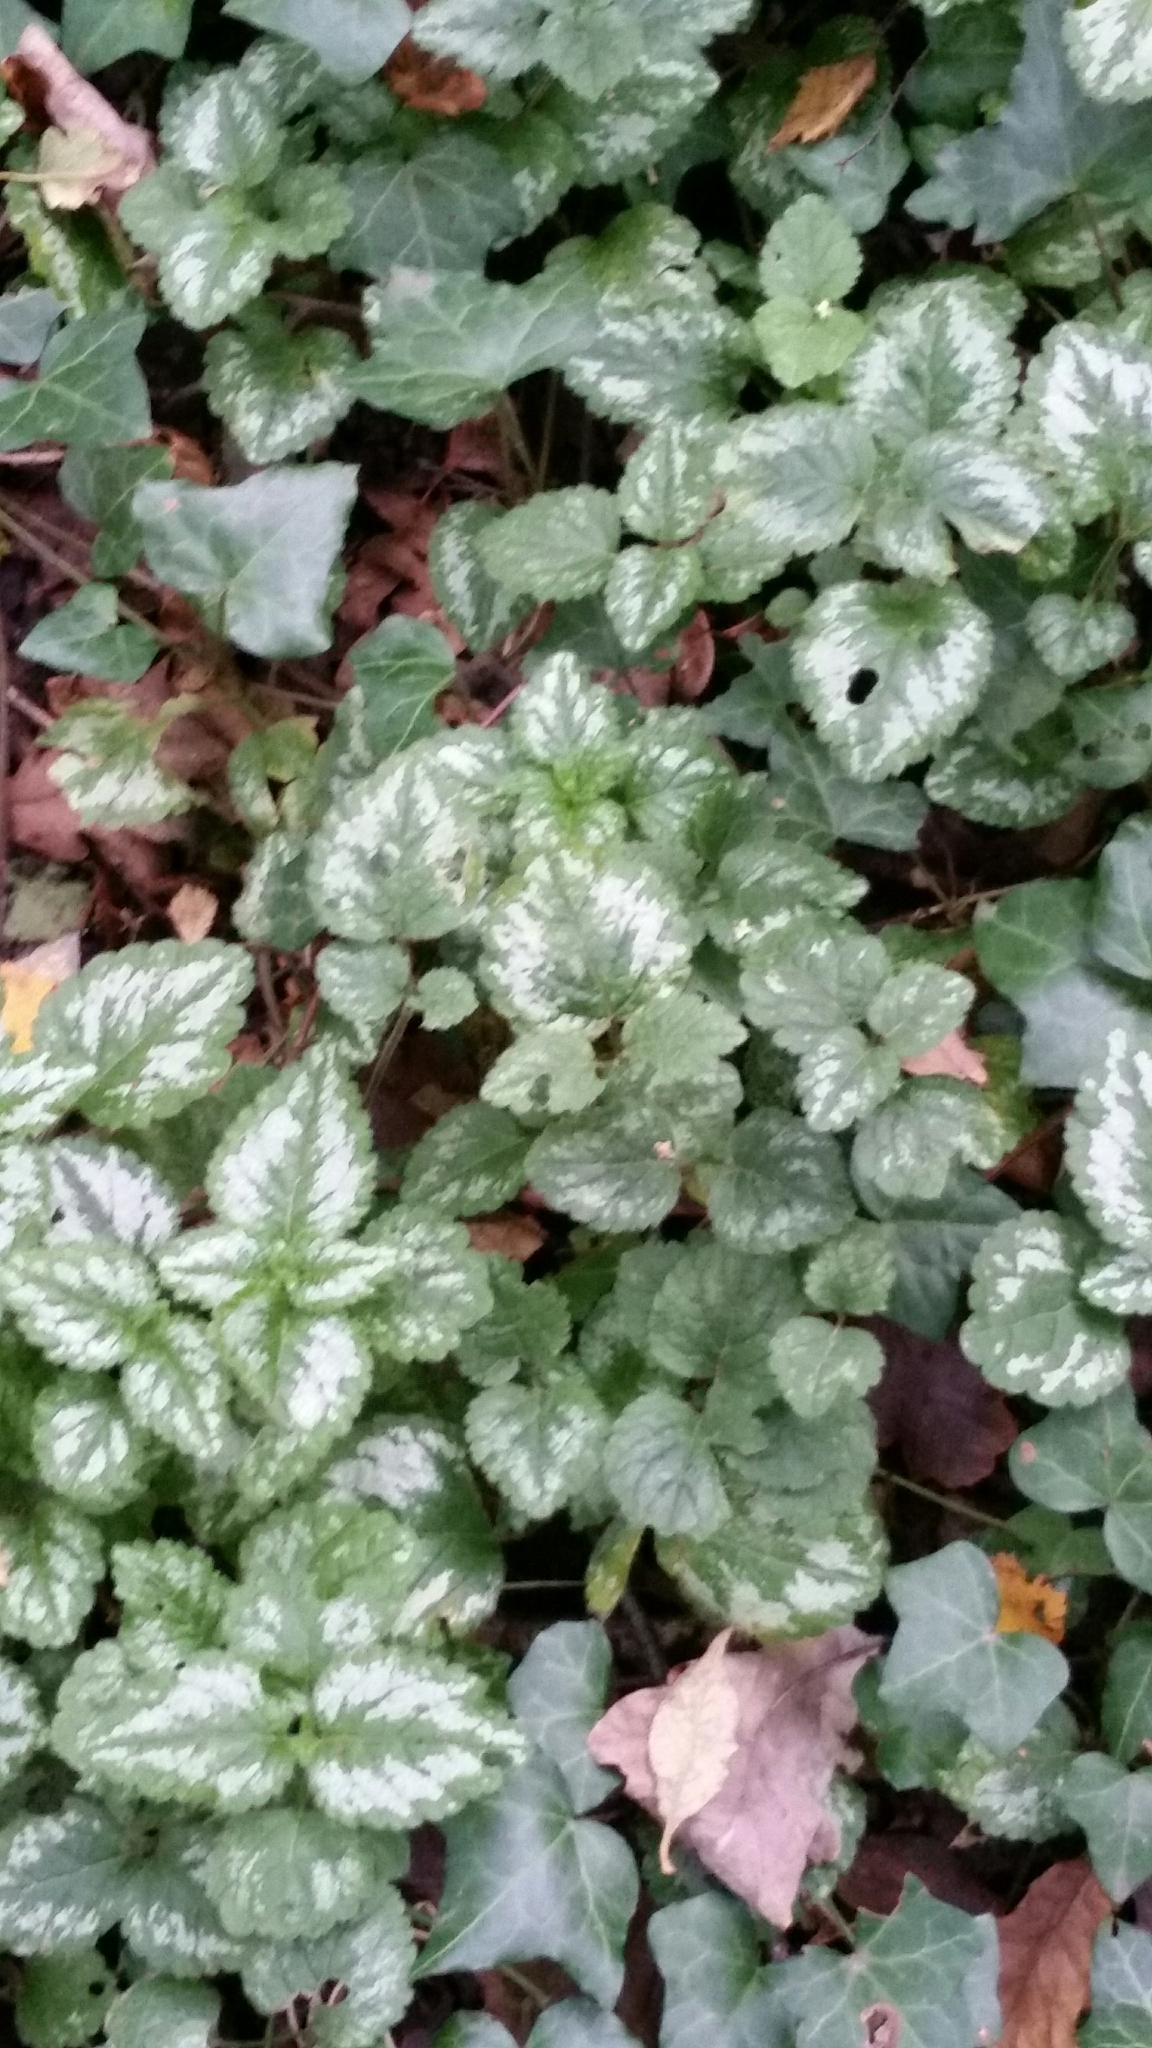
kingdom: Plantae
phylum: Tracheophyta
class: Magnoliopsida
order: Lamiales
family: Lamiaceae
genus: Lamium
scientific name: Lamium galeobdolon
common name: Yellow archangel
